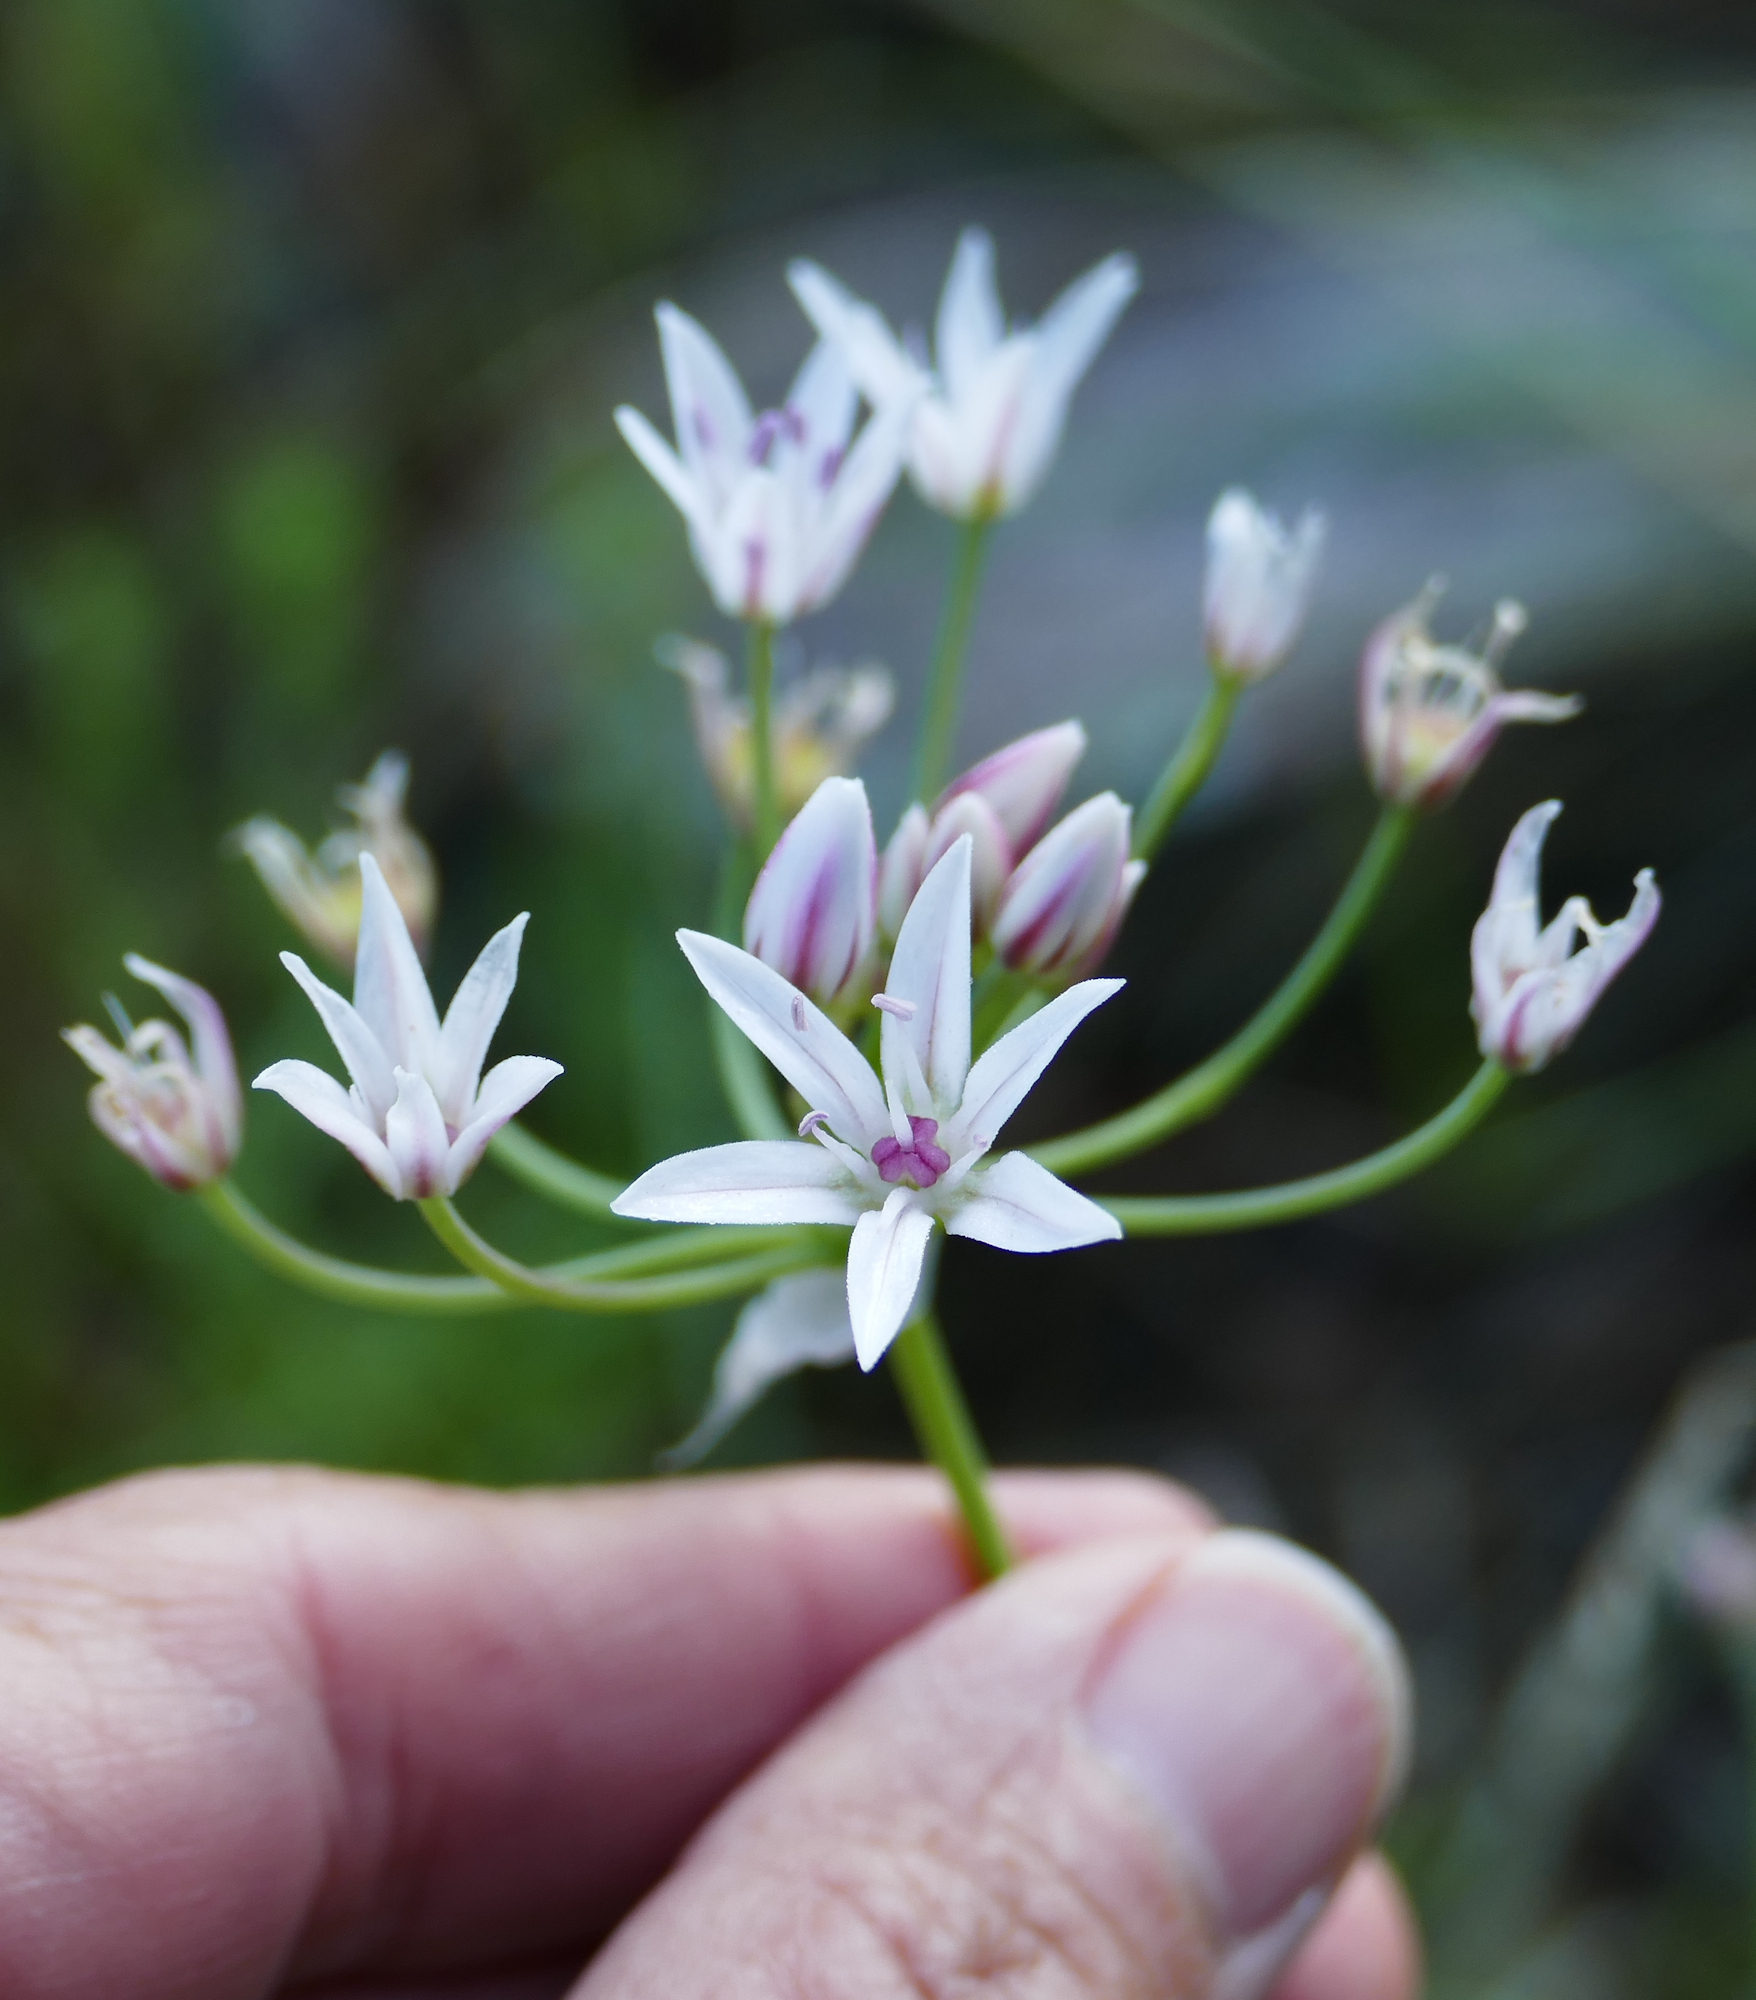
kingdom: Plantae
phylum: Tracheophyta
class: Liliopsida
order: Asparagales
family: Amaryllidaceae
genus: Allium
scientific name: Allium rhizomatum
